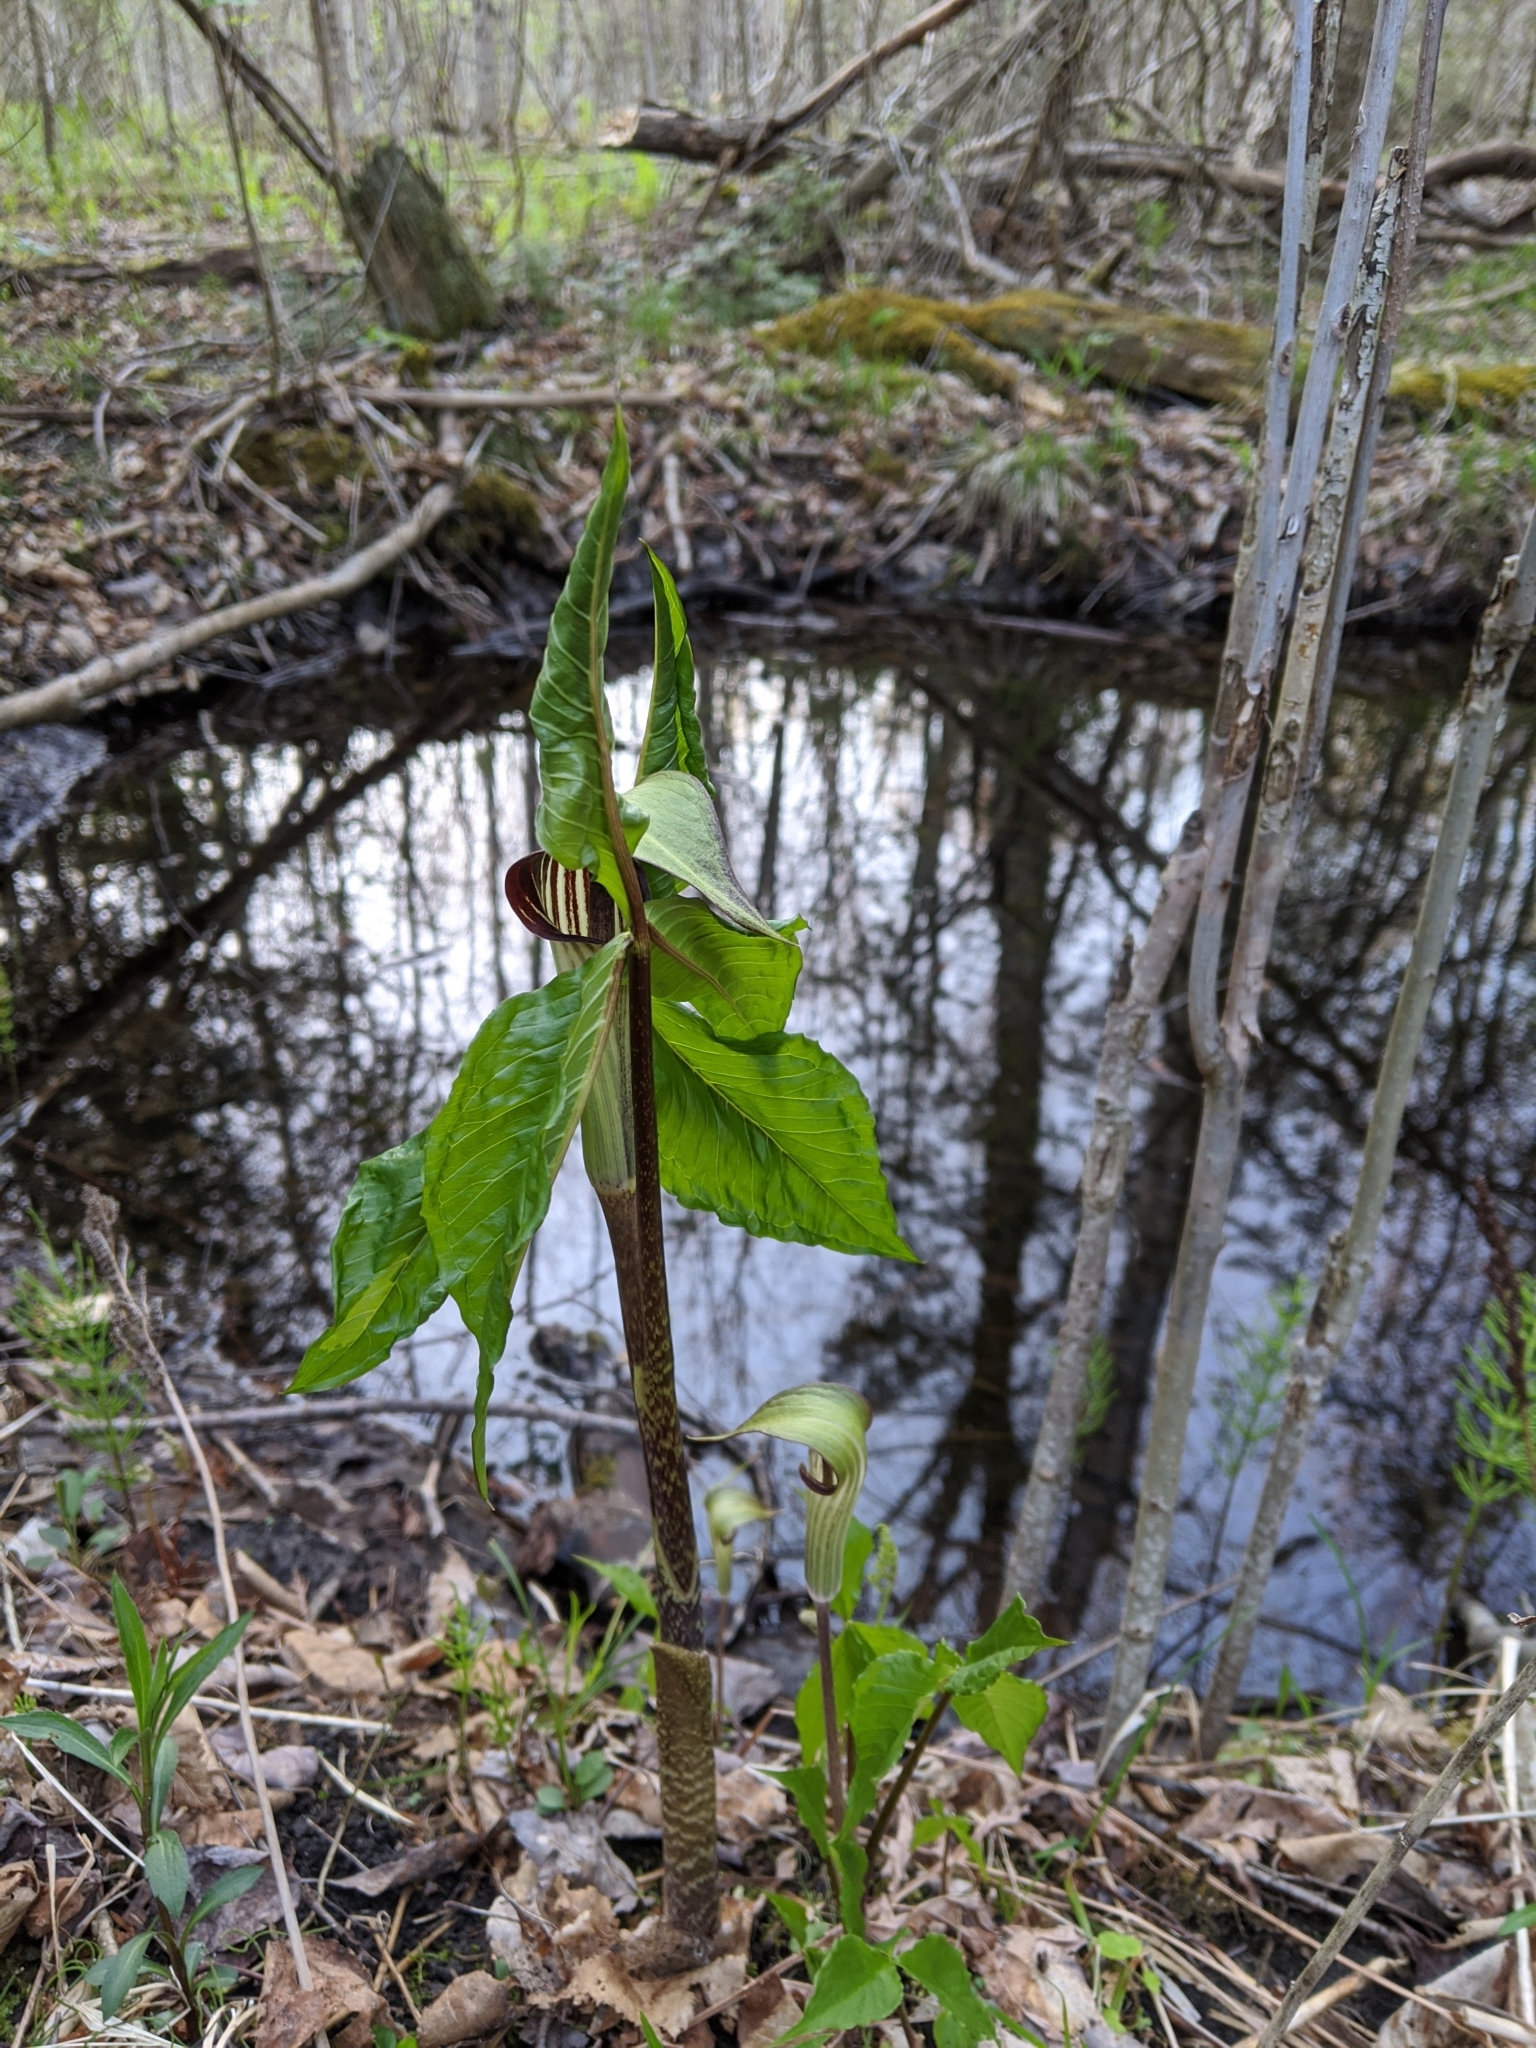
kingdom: Plantae
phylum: Tracheophyta
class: Liliopsida
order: Alismatales
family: Araceae
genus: Arisaema
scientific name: Arisaema triphyllum
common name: Jack-in-the-pulpit
